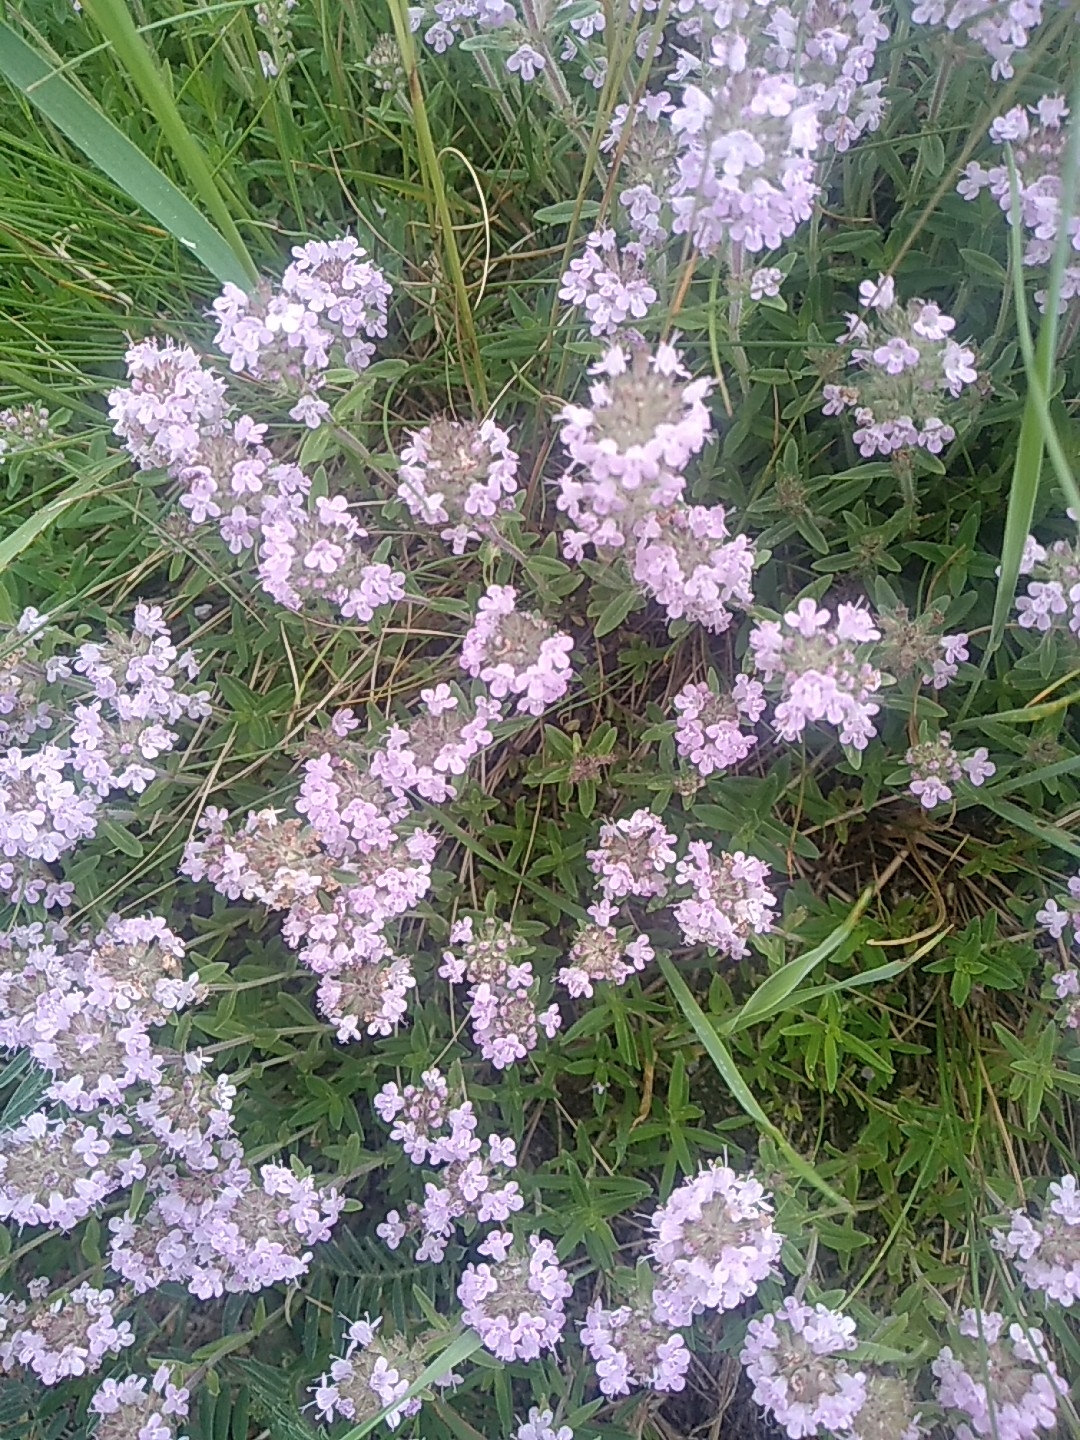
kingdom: Plantae
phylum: Tracheophyta
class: Magnoliopsida
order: Lamiales
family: Lamiaceae
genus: Thymus
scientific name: Thymus pannonicus
